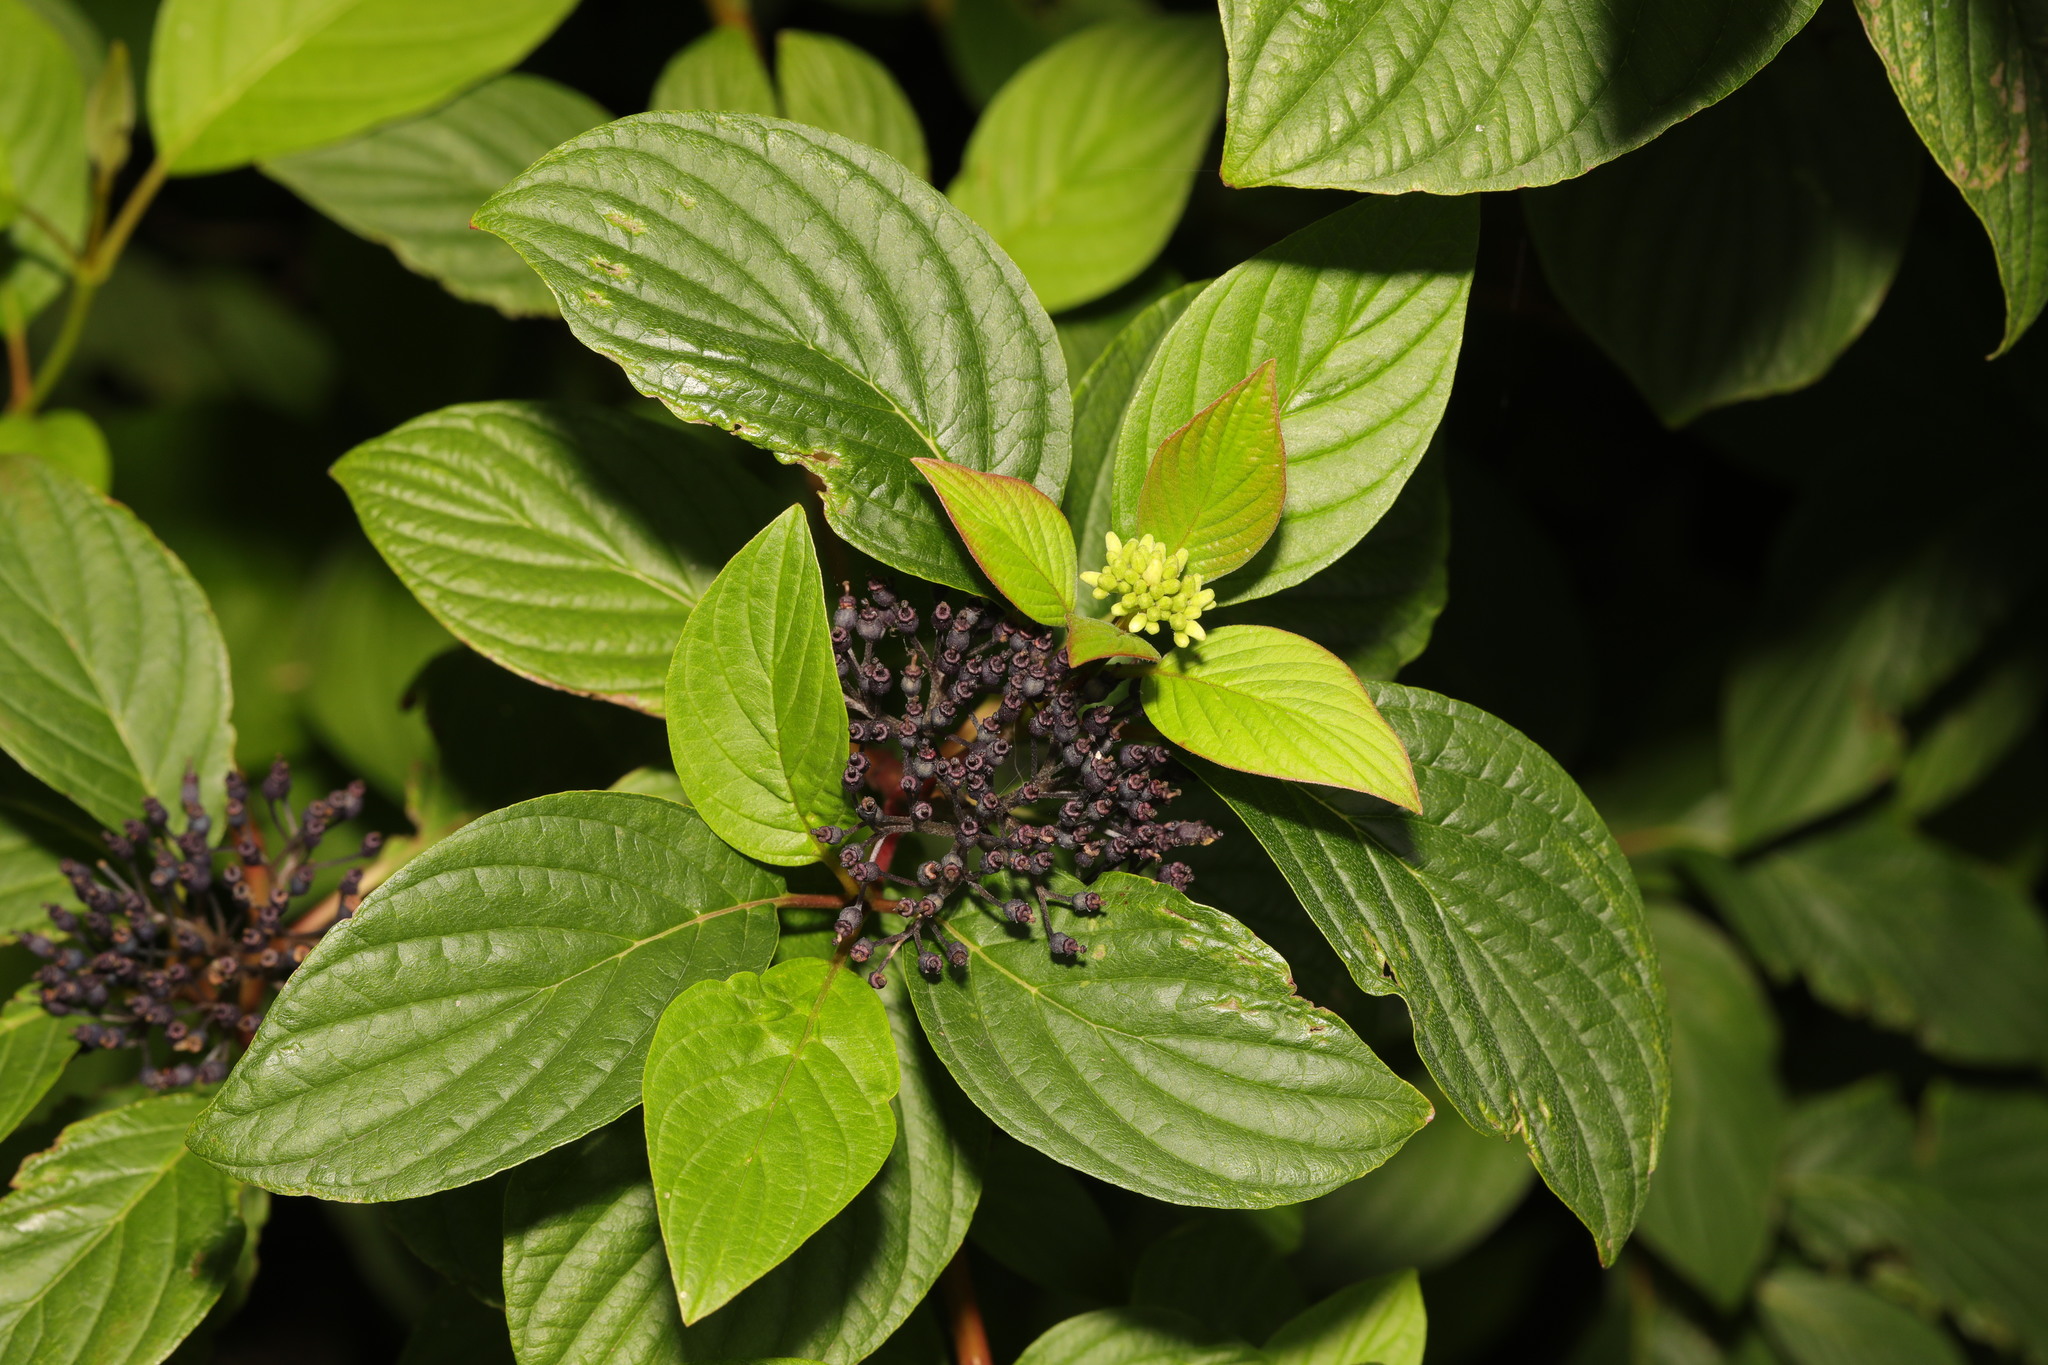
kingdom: Plantae
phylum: Tracheophyta
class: Magnoliopsida
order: Cornales
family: Cornaceae
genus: Cornus
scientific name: Cornus sericea
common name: Red-osier dogwood
